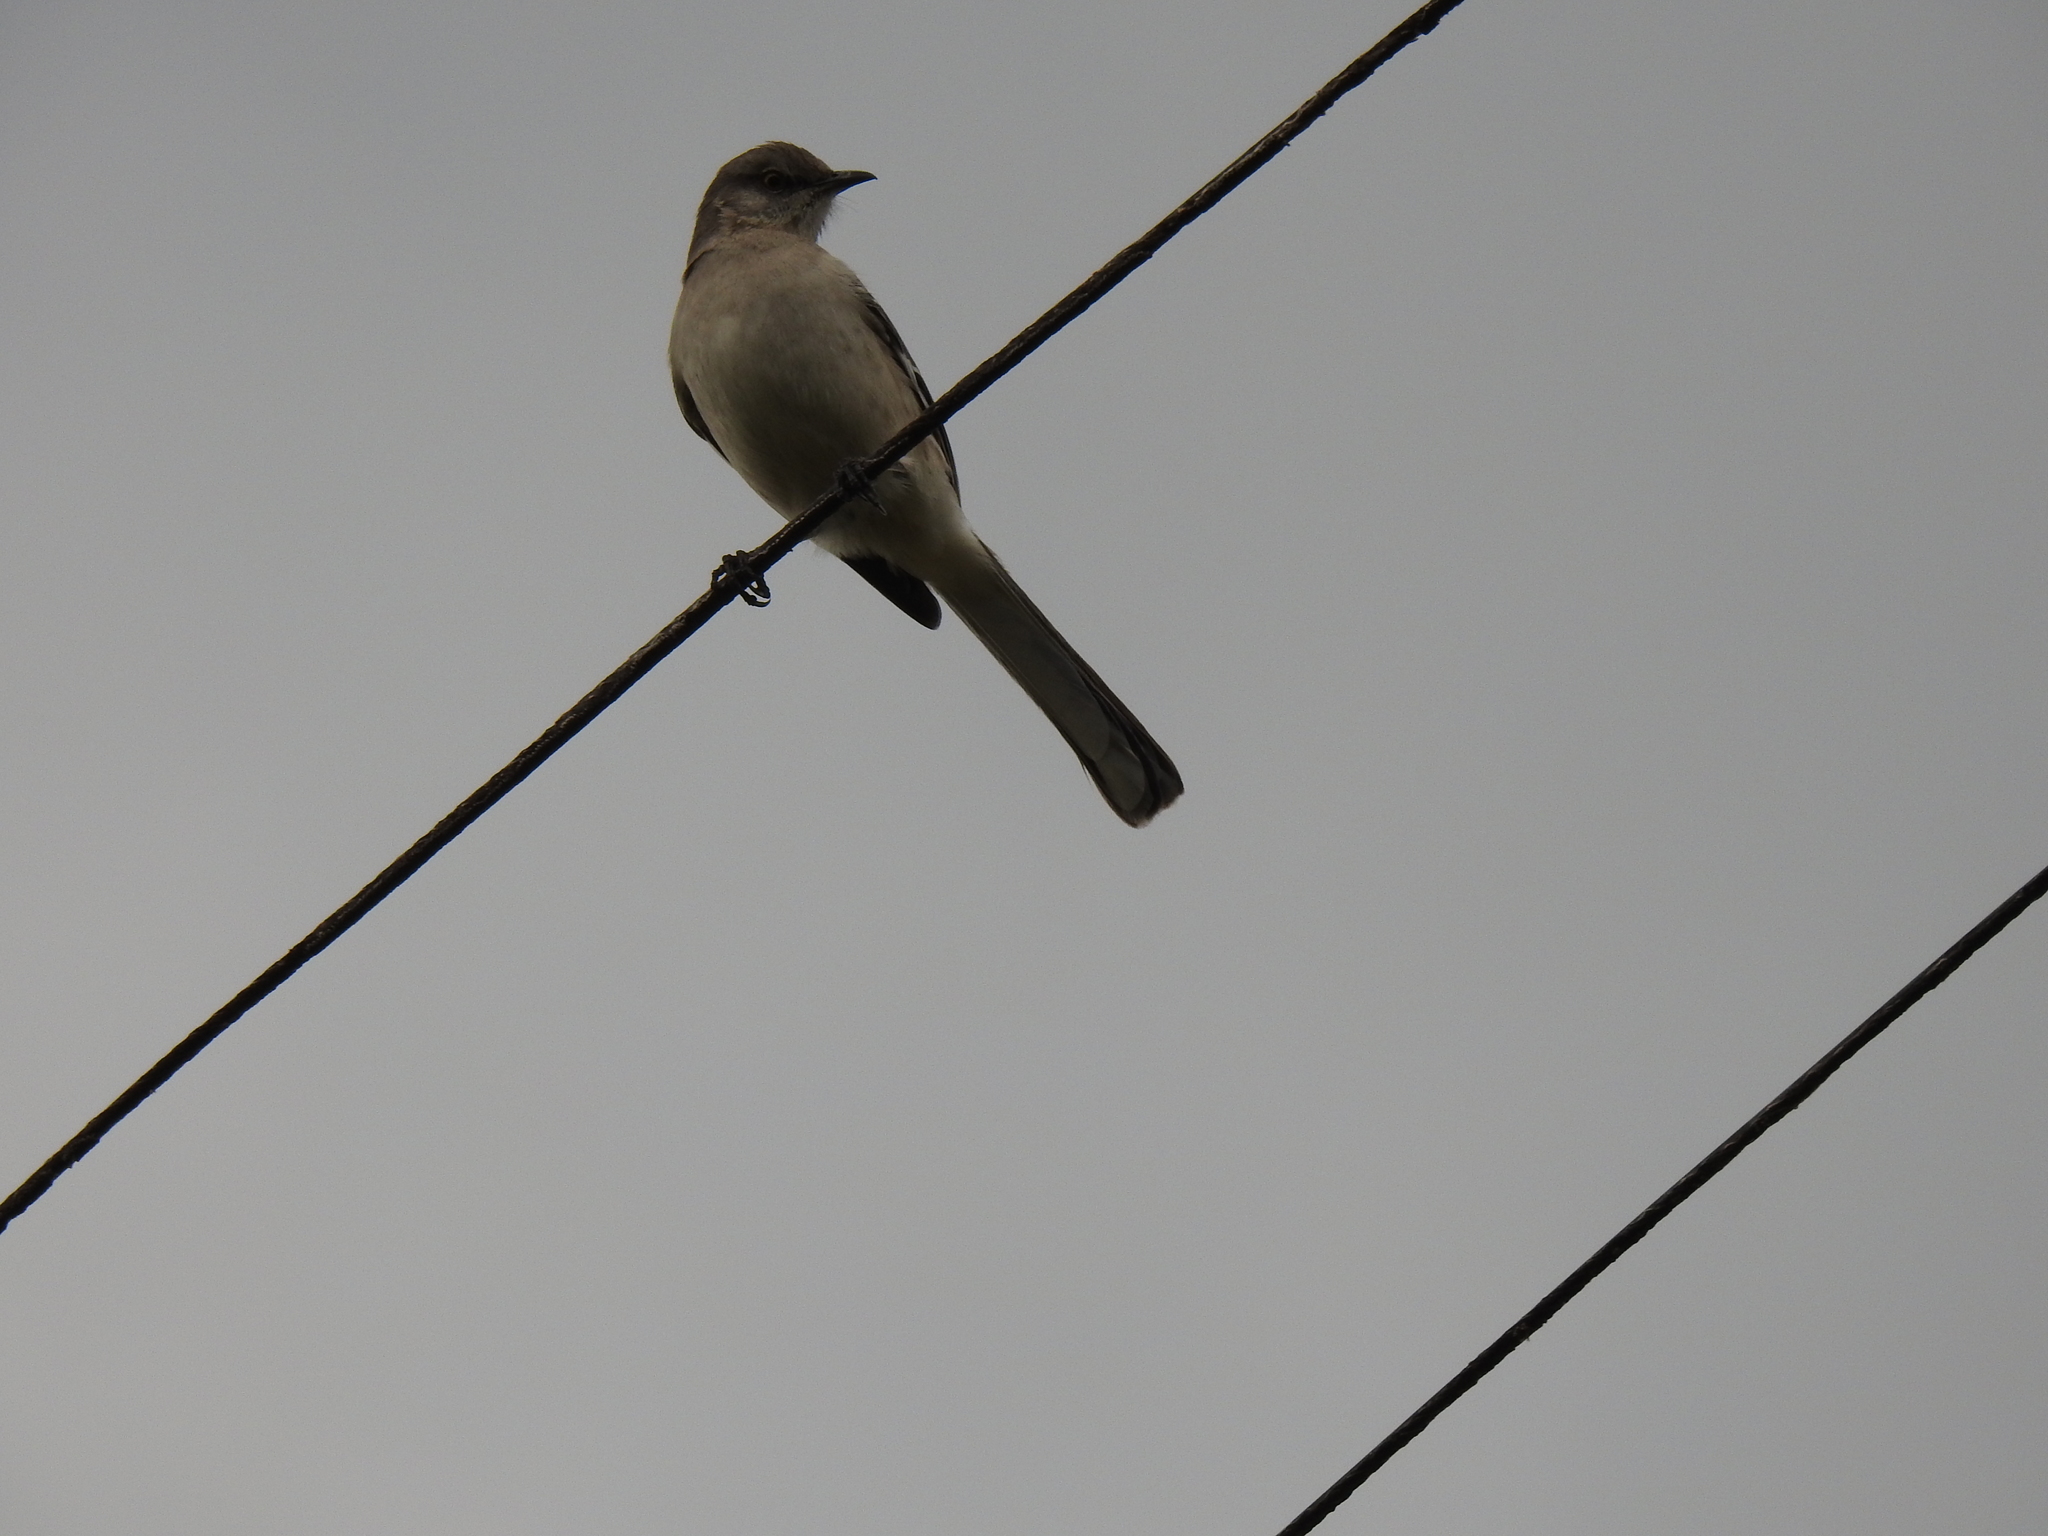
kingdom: Animalia
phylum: Chordata
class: Aves
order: Passeriformes
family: Mimidae
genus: Mimus
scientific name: Mimus polyglottos
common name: Northern mockingbird
